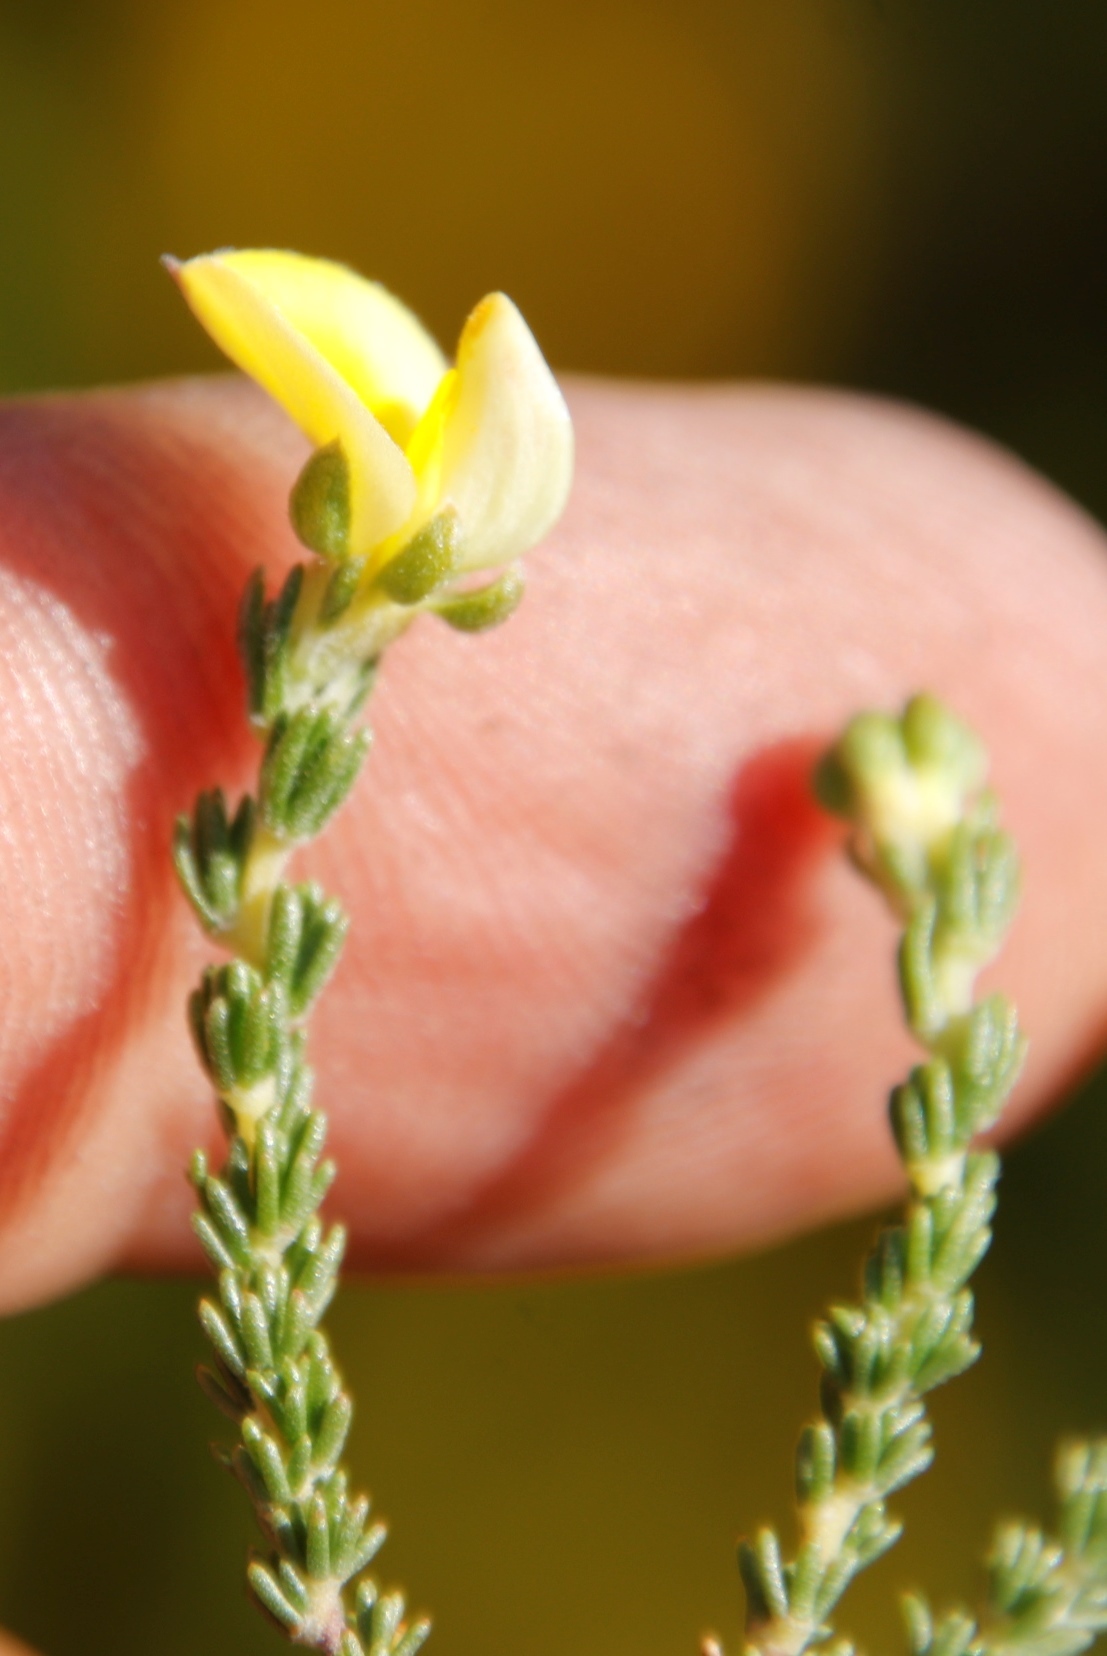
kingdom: Plantae
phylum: Tracheophyta
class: Magnoliopsida
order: Fabales
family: Fabaceae
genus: Aspalathus
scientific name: Aspalathus cymbiformis
